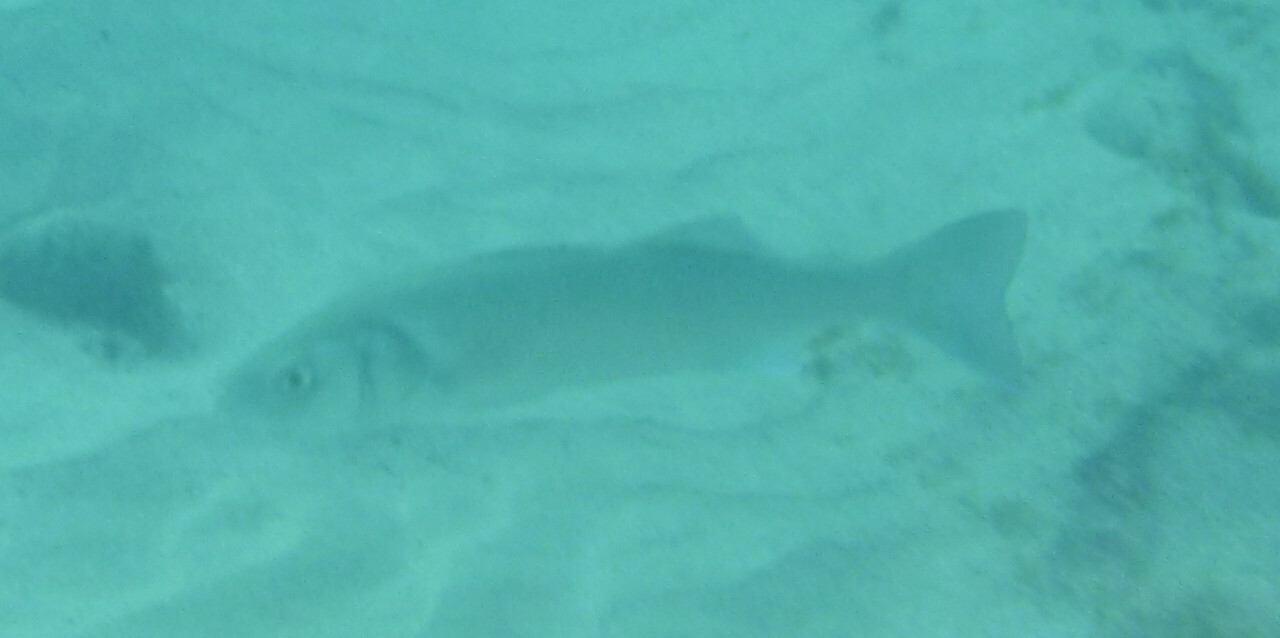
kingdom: Animalia
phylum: Chordata
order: Perciformes
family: Moronidae
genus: Dicentrarchus
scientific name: Dicentrarchus labrax
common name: European seabass
